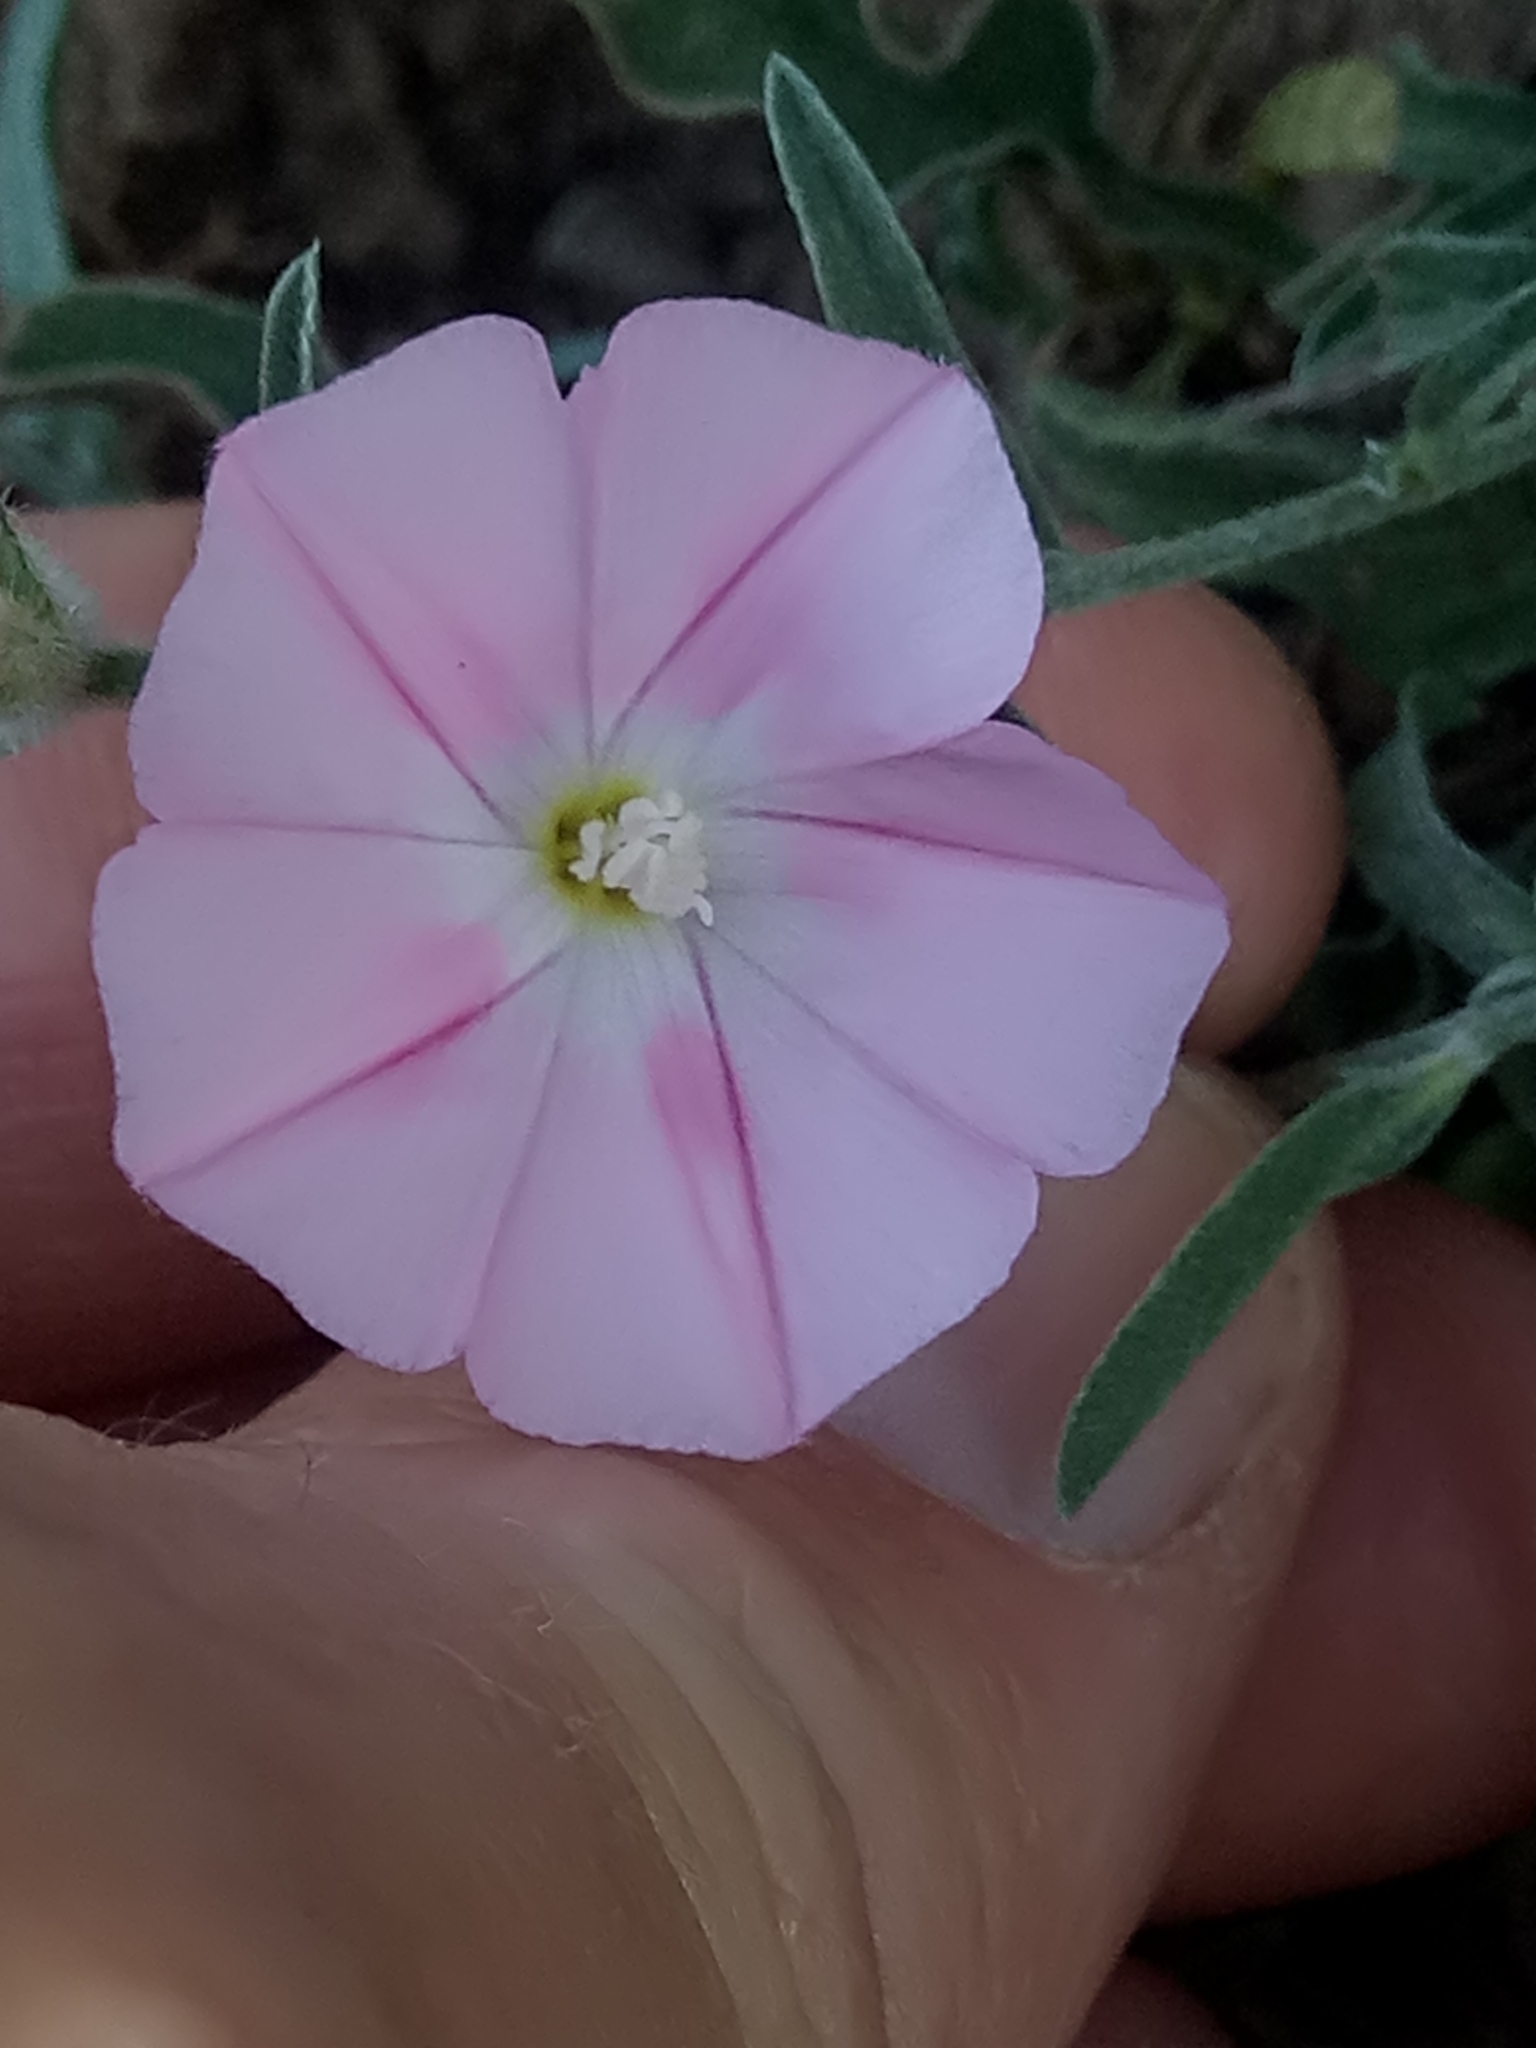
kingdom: Plantae
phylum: Tracheophyta
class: Magnoliopsida
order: Solanales
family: Convolvulaceae
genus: Convolvulus
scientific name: Convolvulus cantabrica
